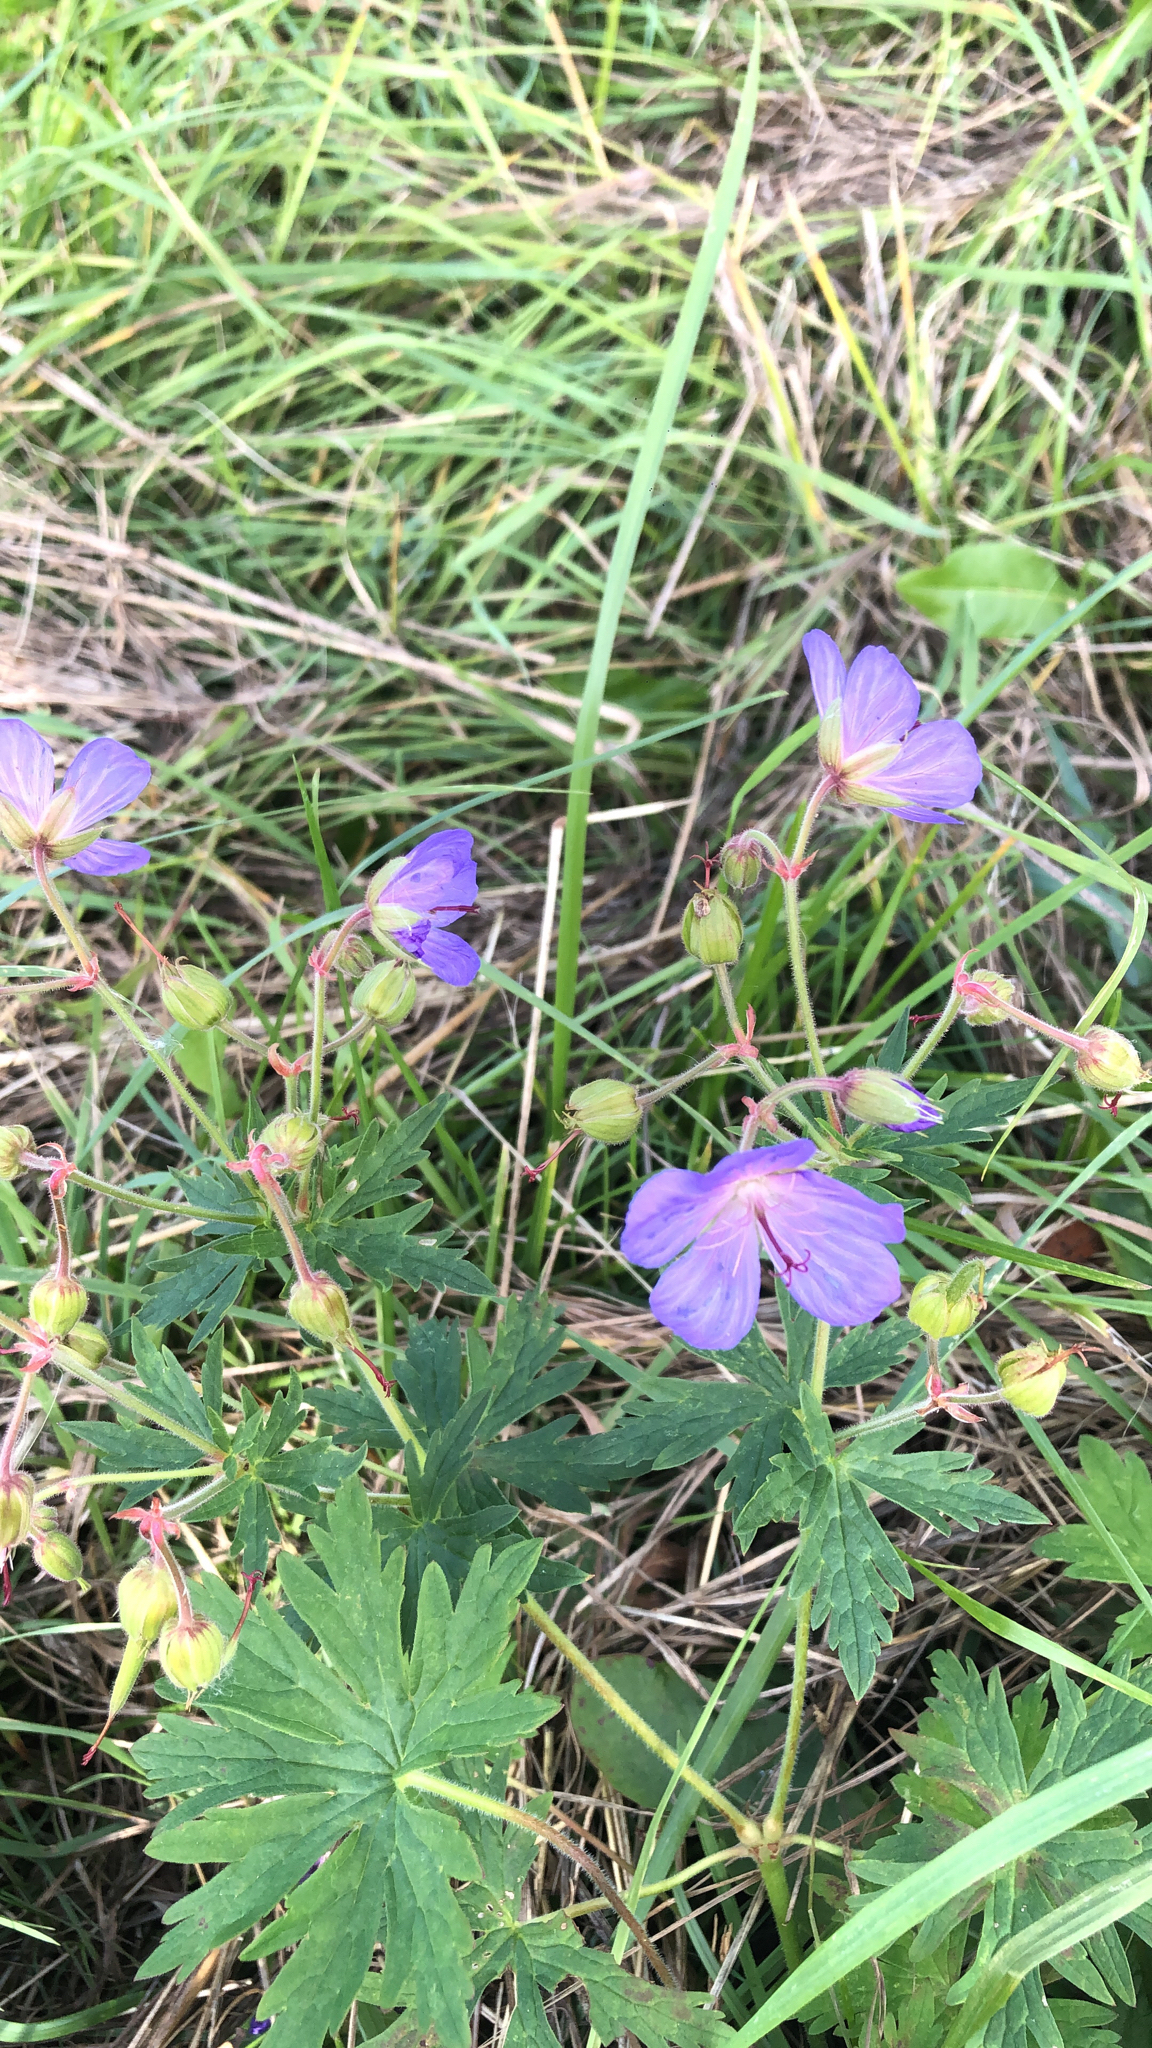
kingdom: Plantae
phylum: Tracheophyta
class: Magnoliopsida
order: Geraniales
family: Geraniaceae
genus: Geranium
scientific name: Geranium pratense
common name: Meadow crane's-bill
